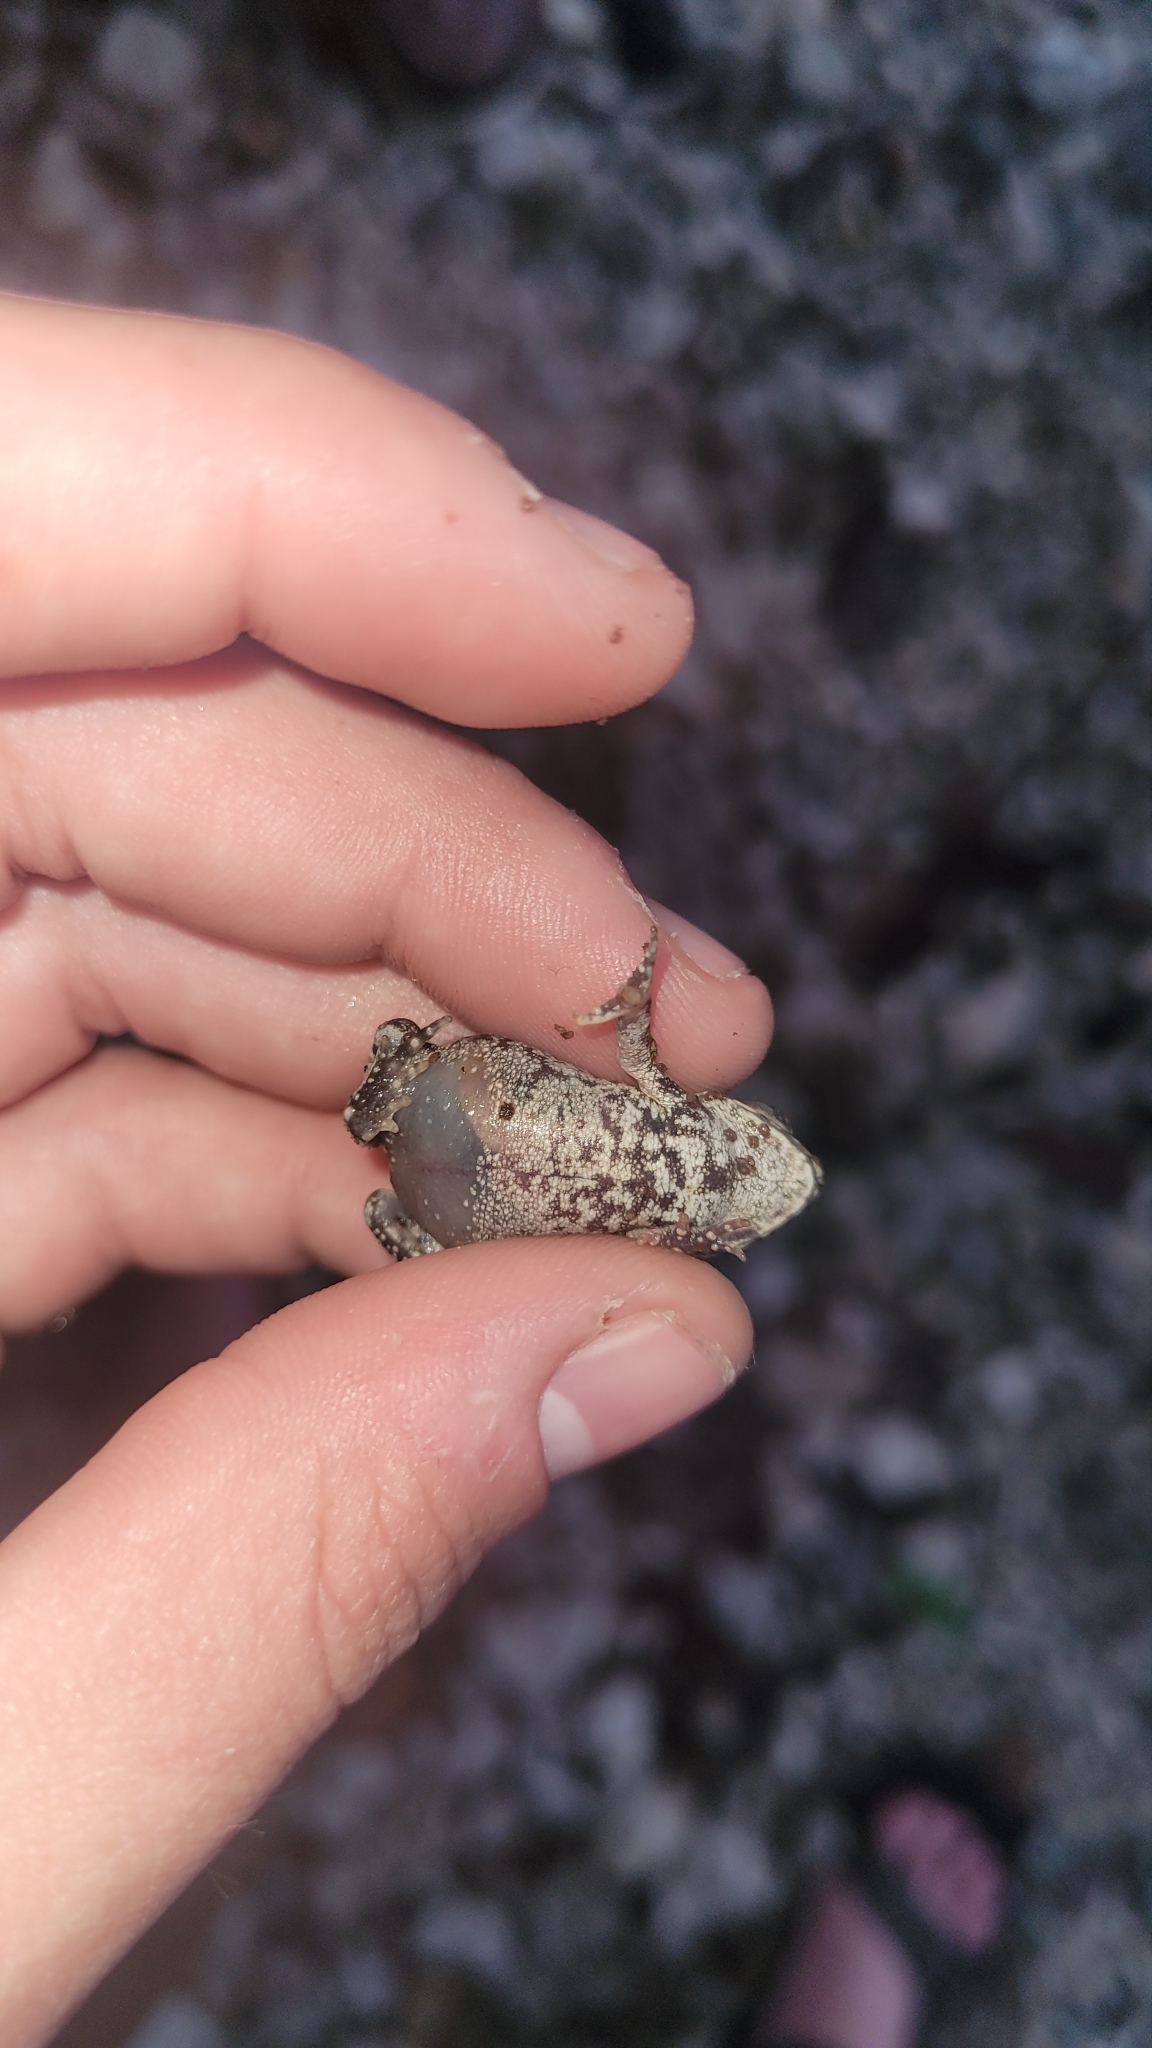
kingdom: Animalia
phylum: Chordata
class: Amphibia
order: Anura
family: Bufonidae
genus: Rhinella
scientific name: Rhinella horribilis
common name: Mesoamerican cane toad
